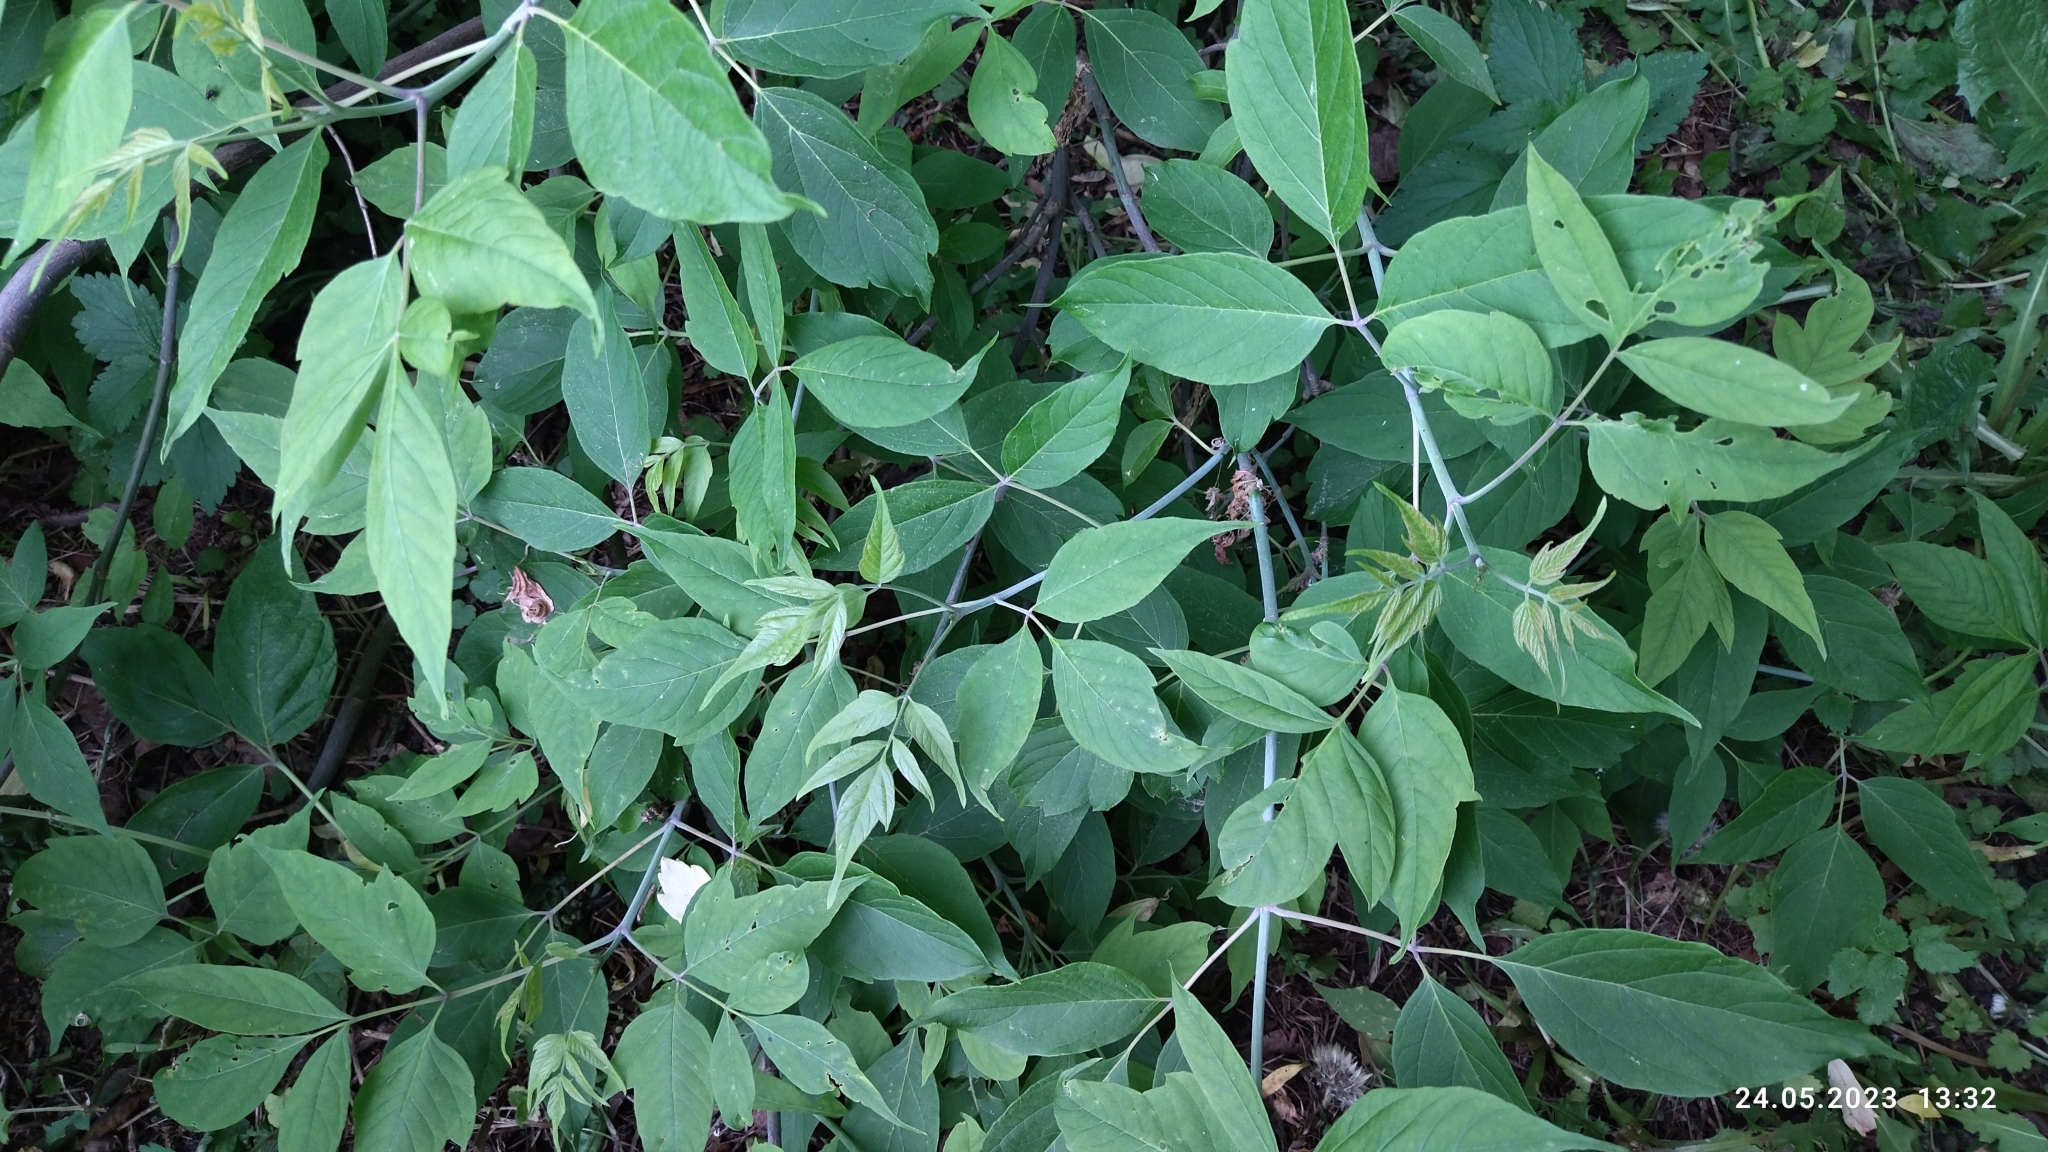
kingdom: Plantae
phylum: Tracheophyta
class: Magnoliopsida
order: Sapindales
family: Sapindaceae
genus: Acer
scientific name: Acer negundo
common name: Ashleaf maple
